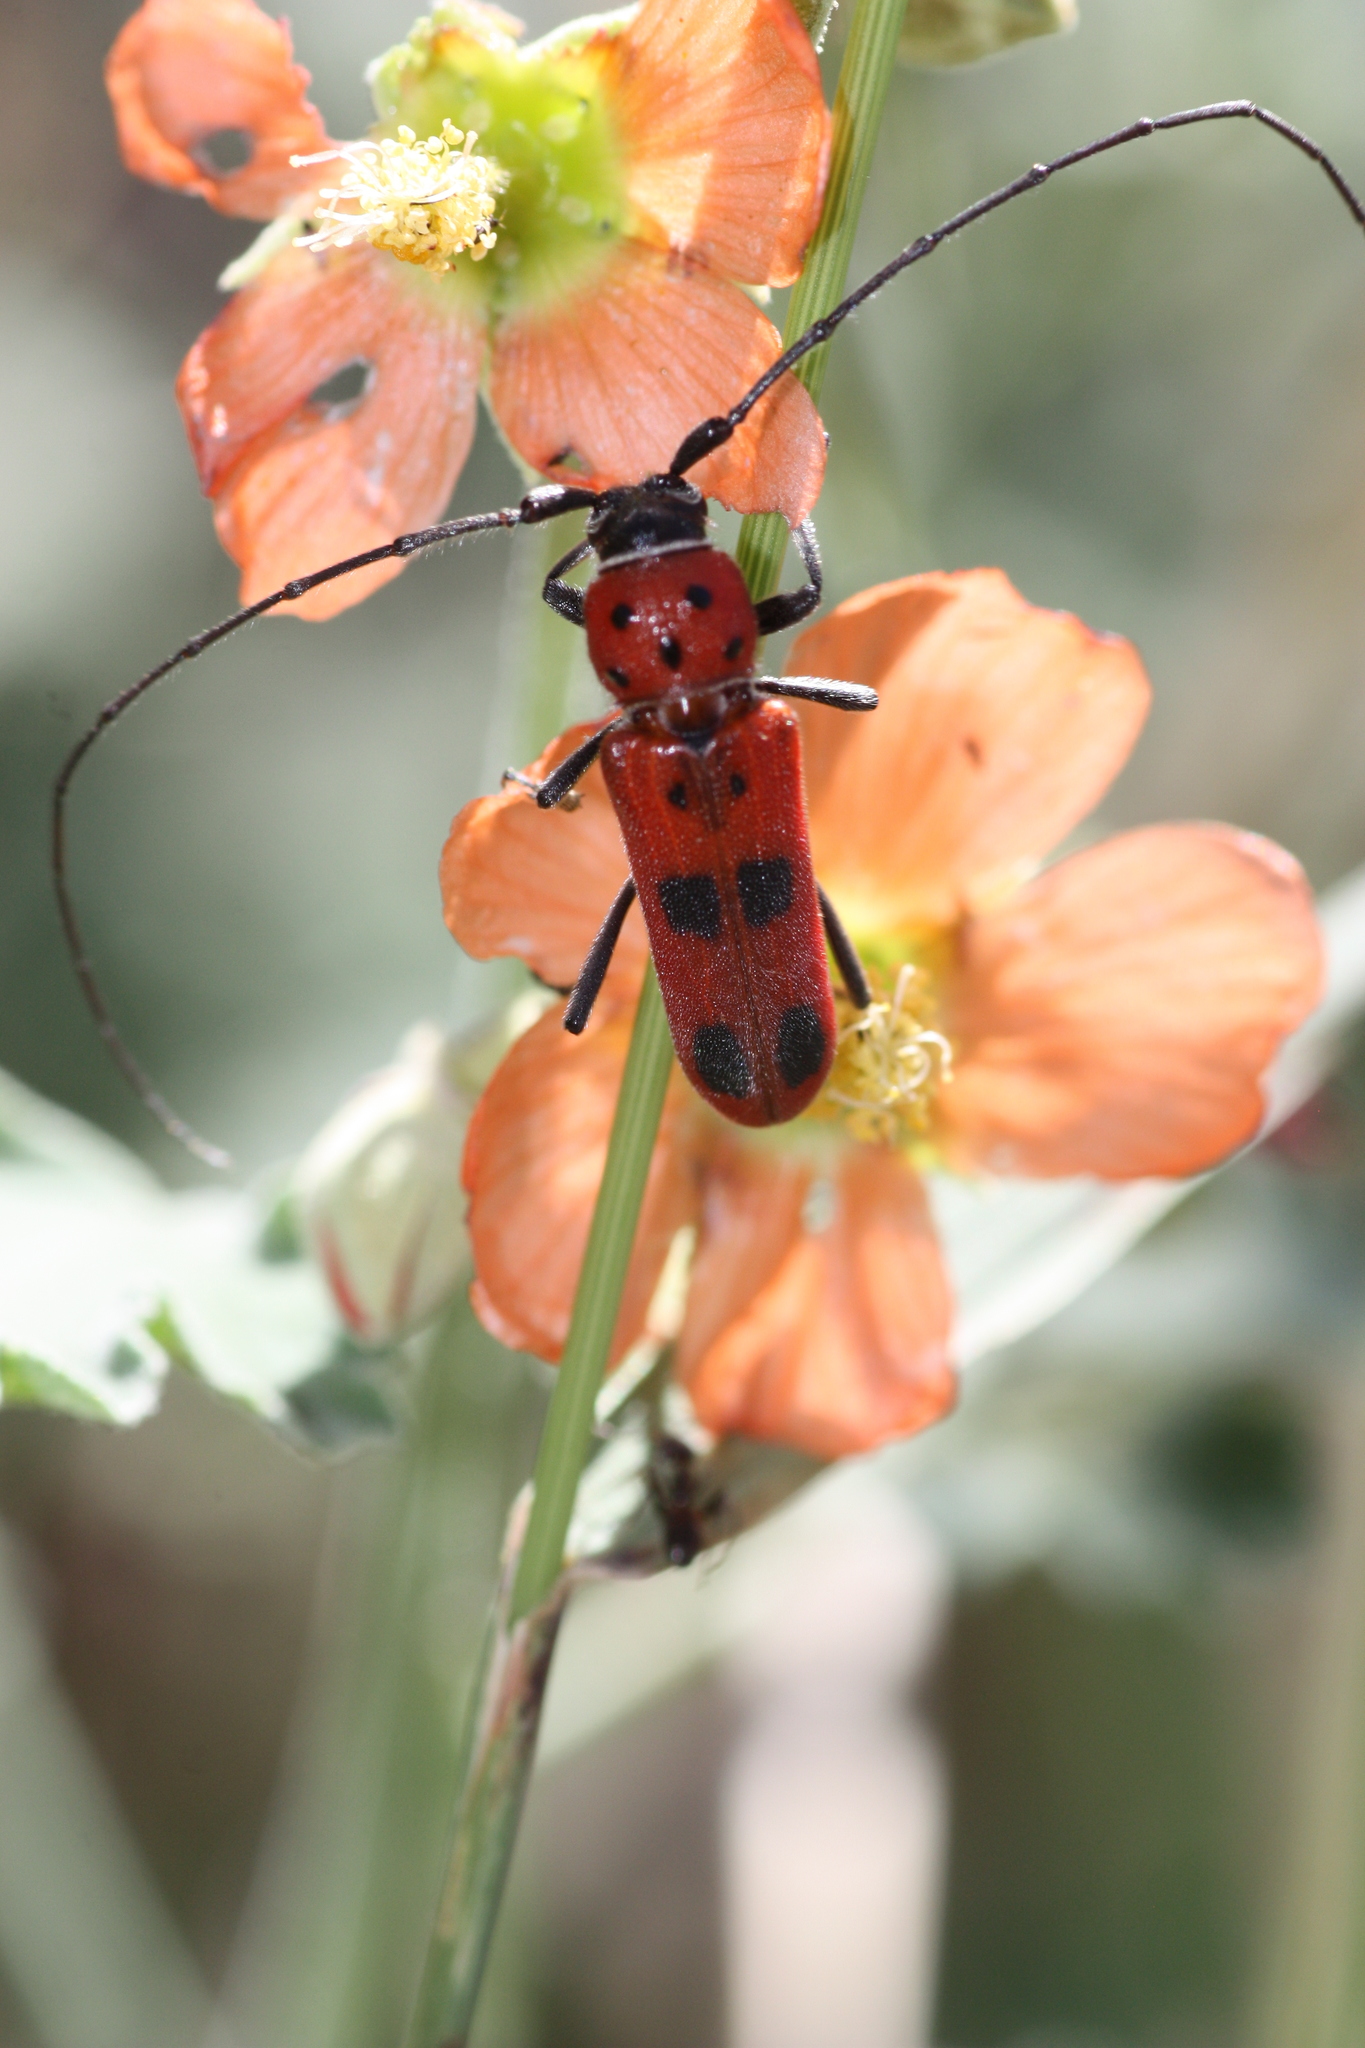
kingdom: Animalia
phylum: Arthropoda
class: Insecta
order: Coleoptera
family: Cerambycidae
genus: Tylosis
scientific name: Tylosis maculatus
